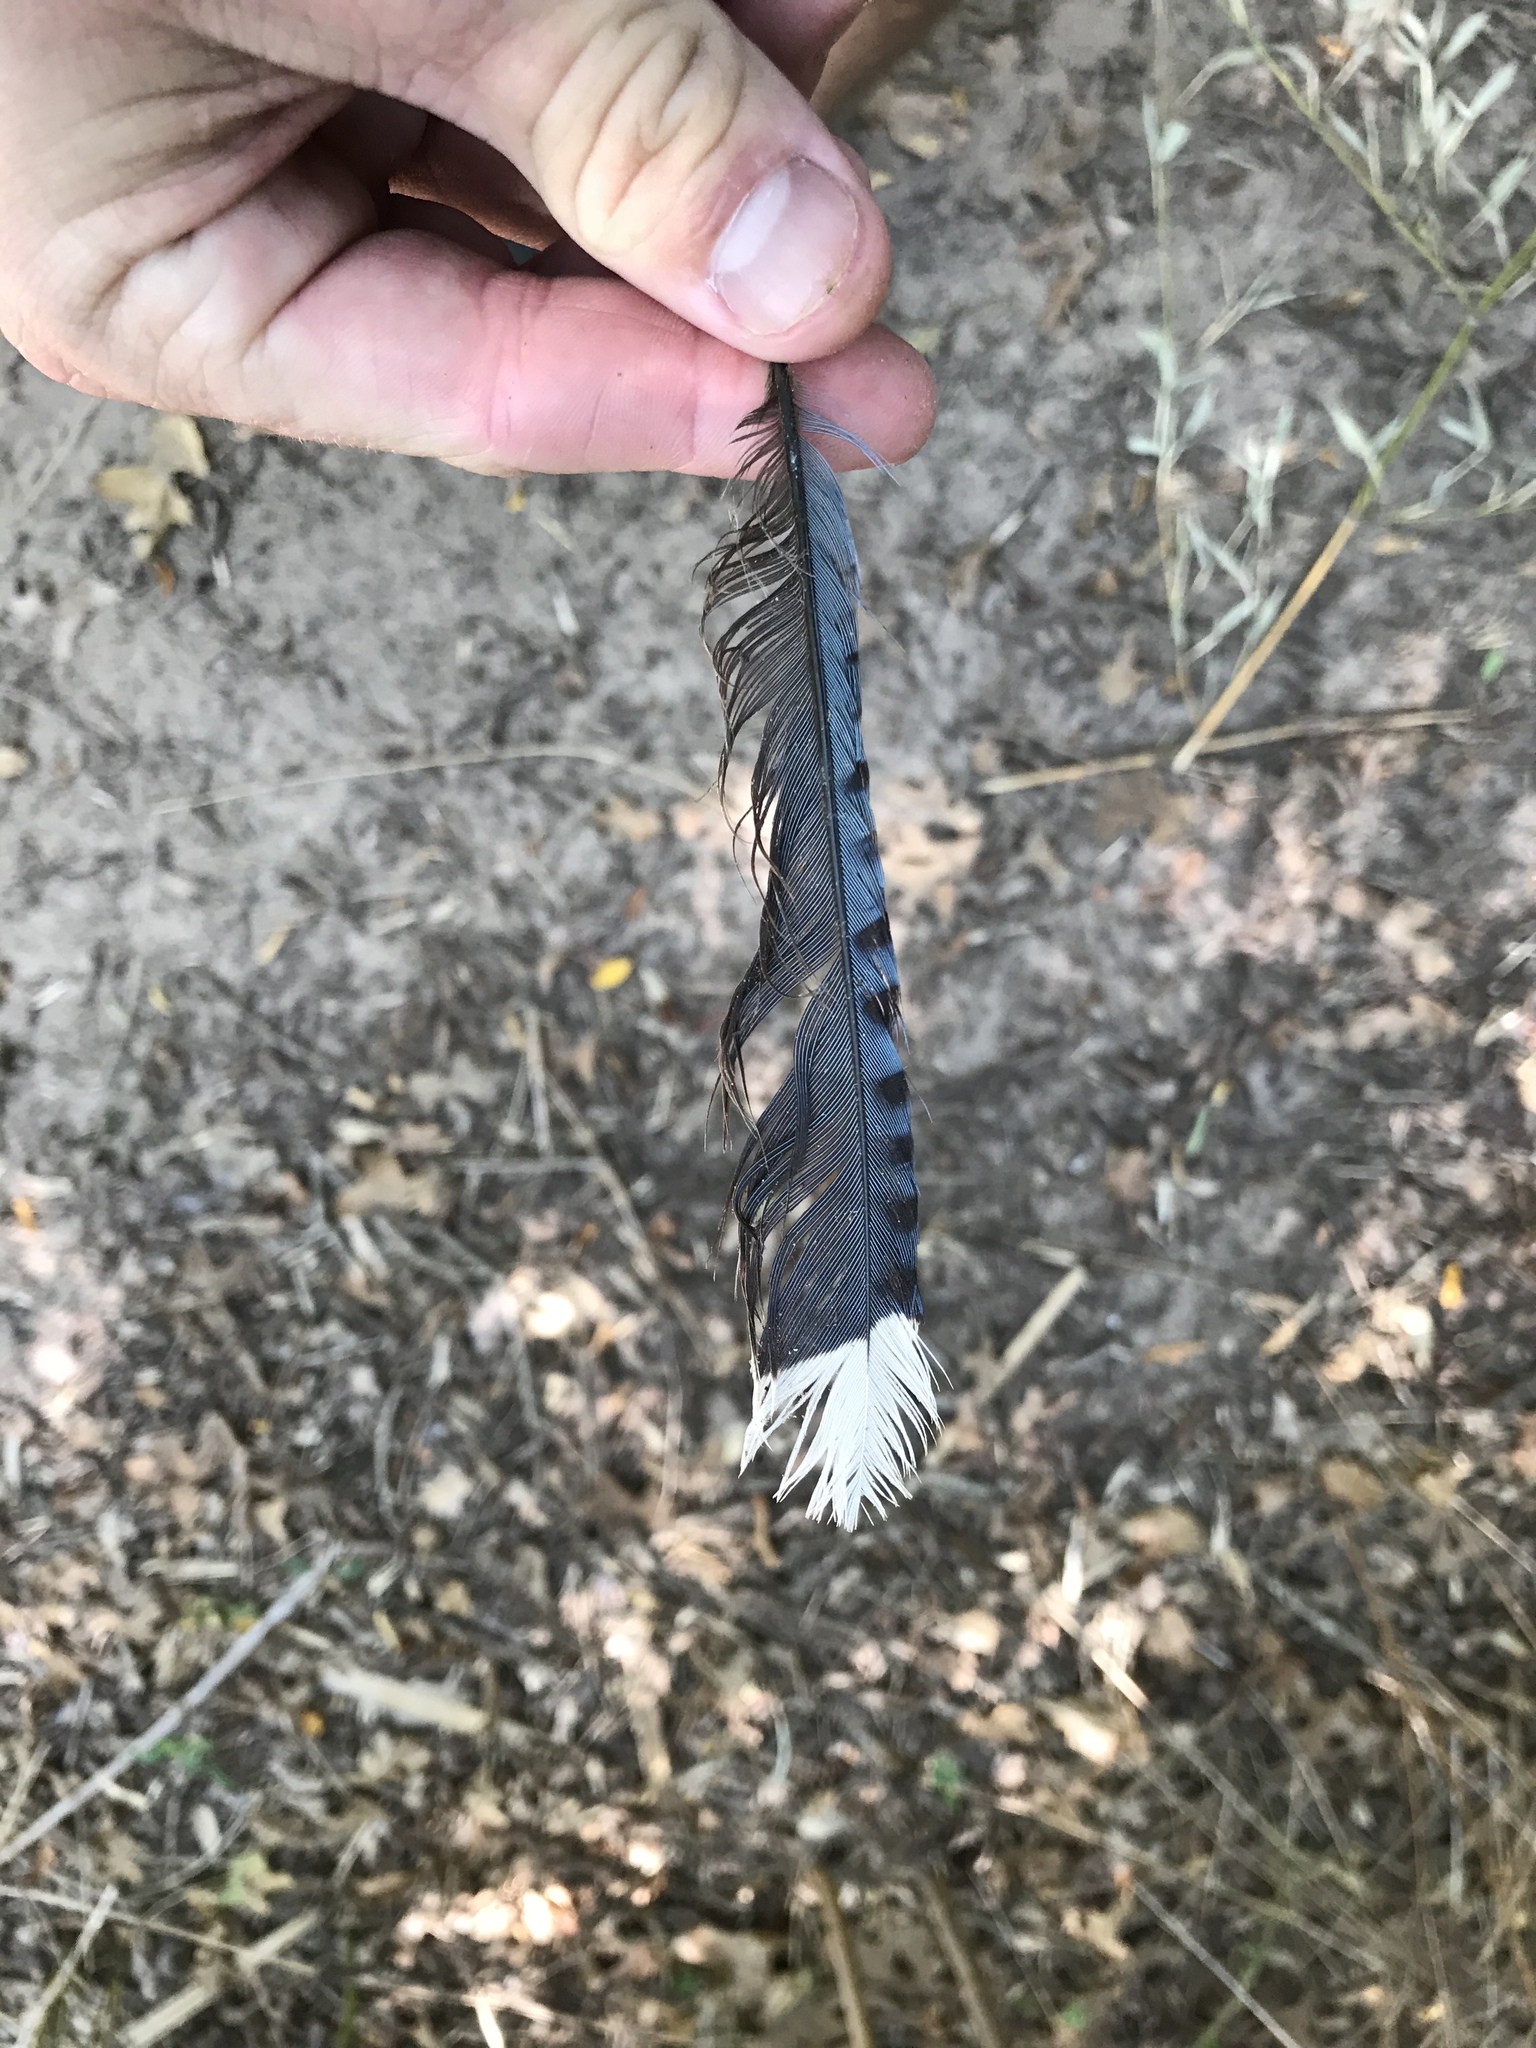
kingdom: Animalia
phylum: Chordata
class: Aves
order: Passeriformes
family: Corvidae
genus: Cyanocitta
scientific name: Cyanocitta cristata
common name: Blue jay
